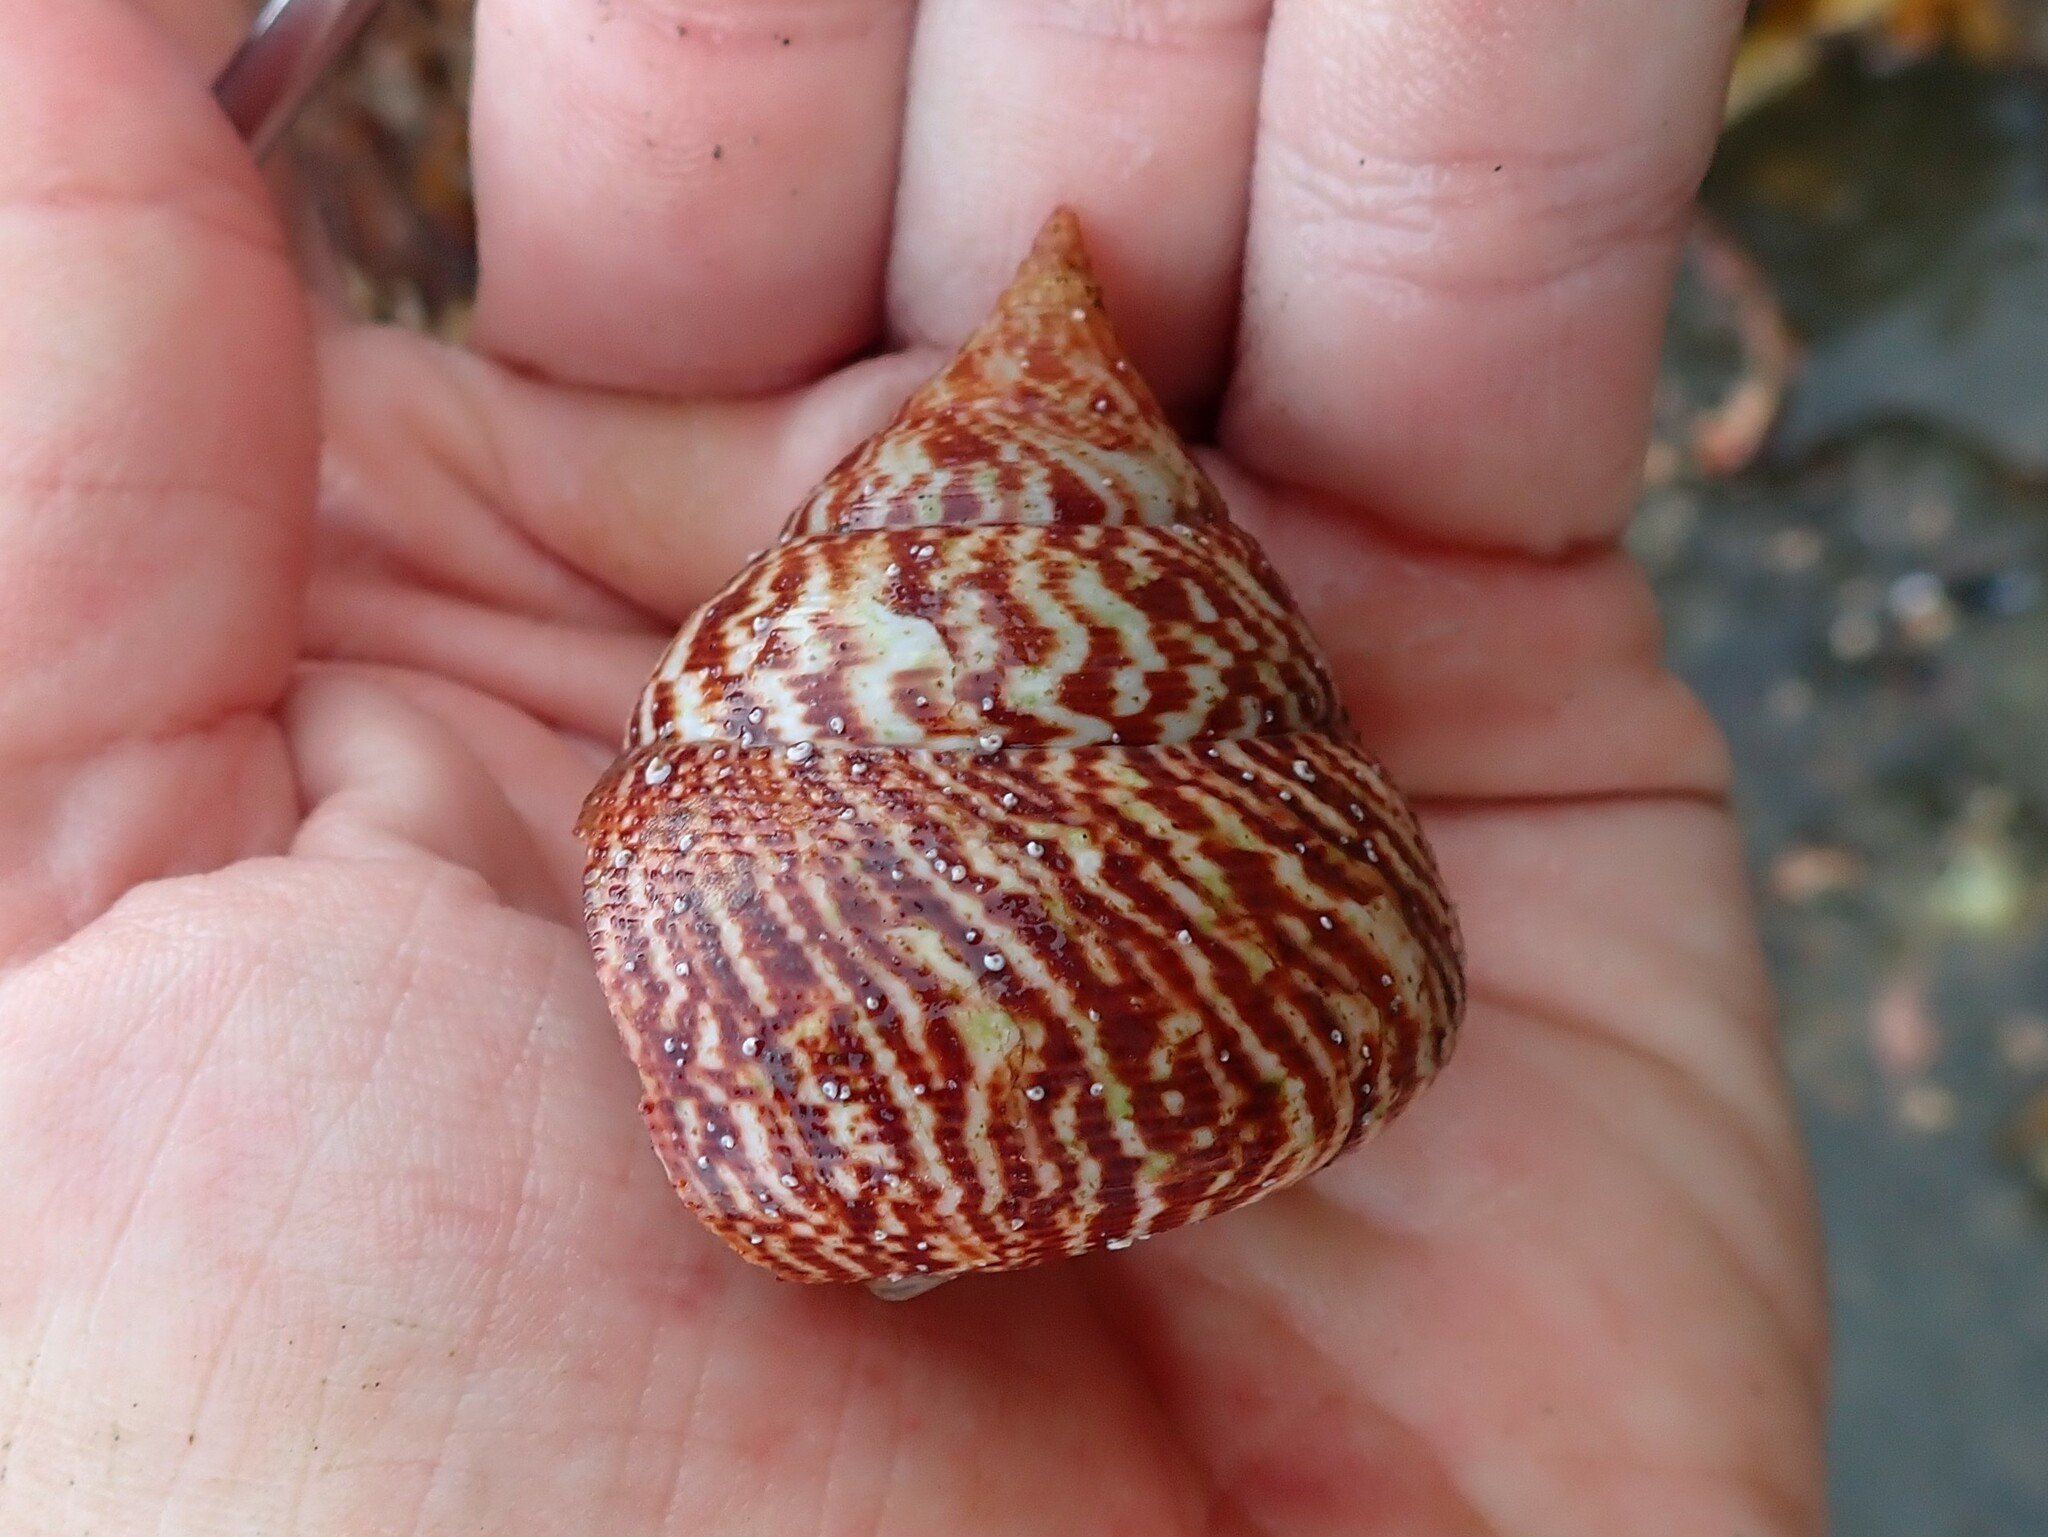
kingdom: Animalia
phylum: Mollusca
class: Gastropoda
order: Trochida
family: Calliostomatidae
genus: Maurea
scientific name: Maurea tigris
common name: Tiger maurea
